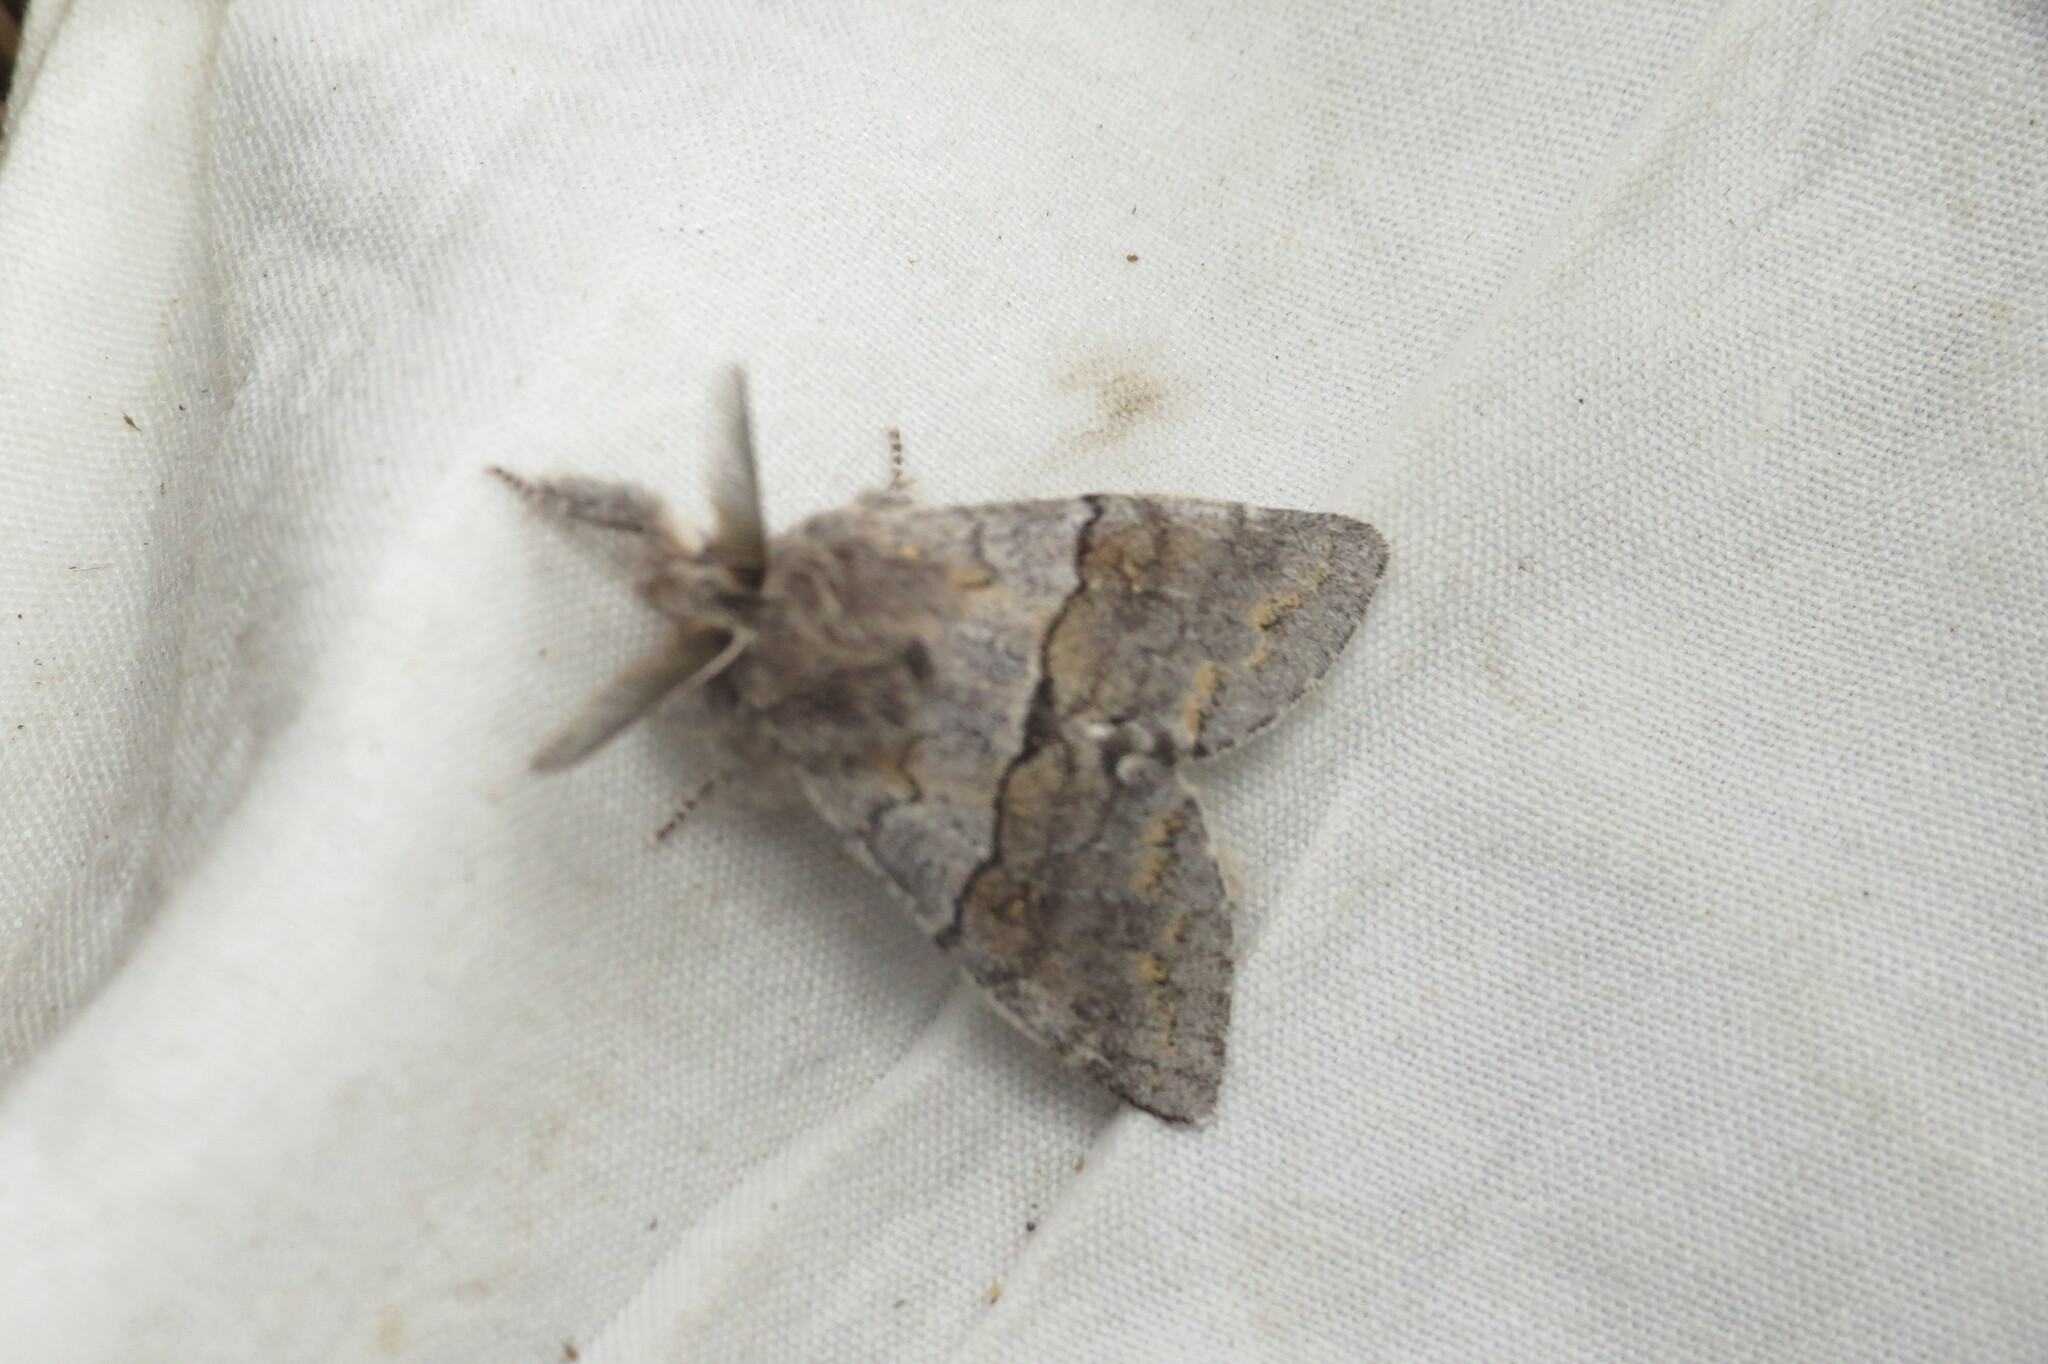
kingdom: Animalia
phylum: Arthropoda
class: Insecta
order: Lepidoptera
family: Notodontidae
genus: Gluphisia
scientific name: Gluphisia lintneri
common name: Lintner's gluphisia moth
